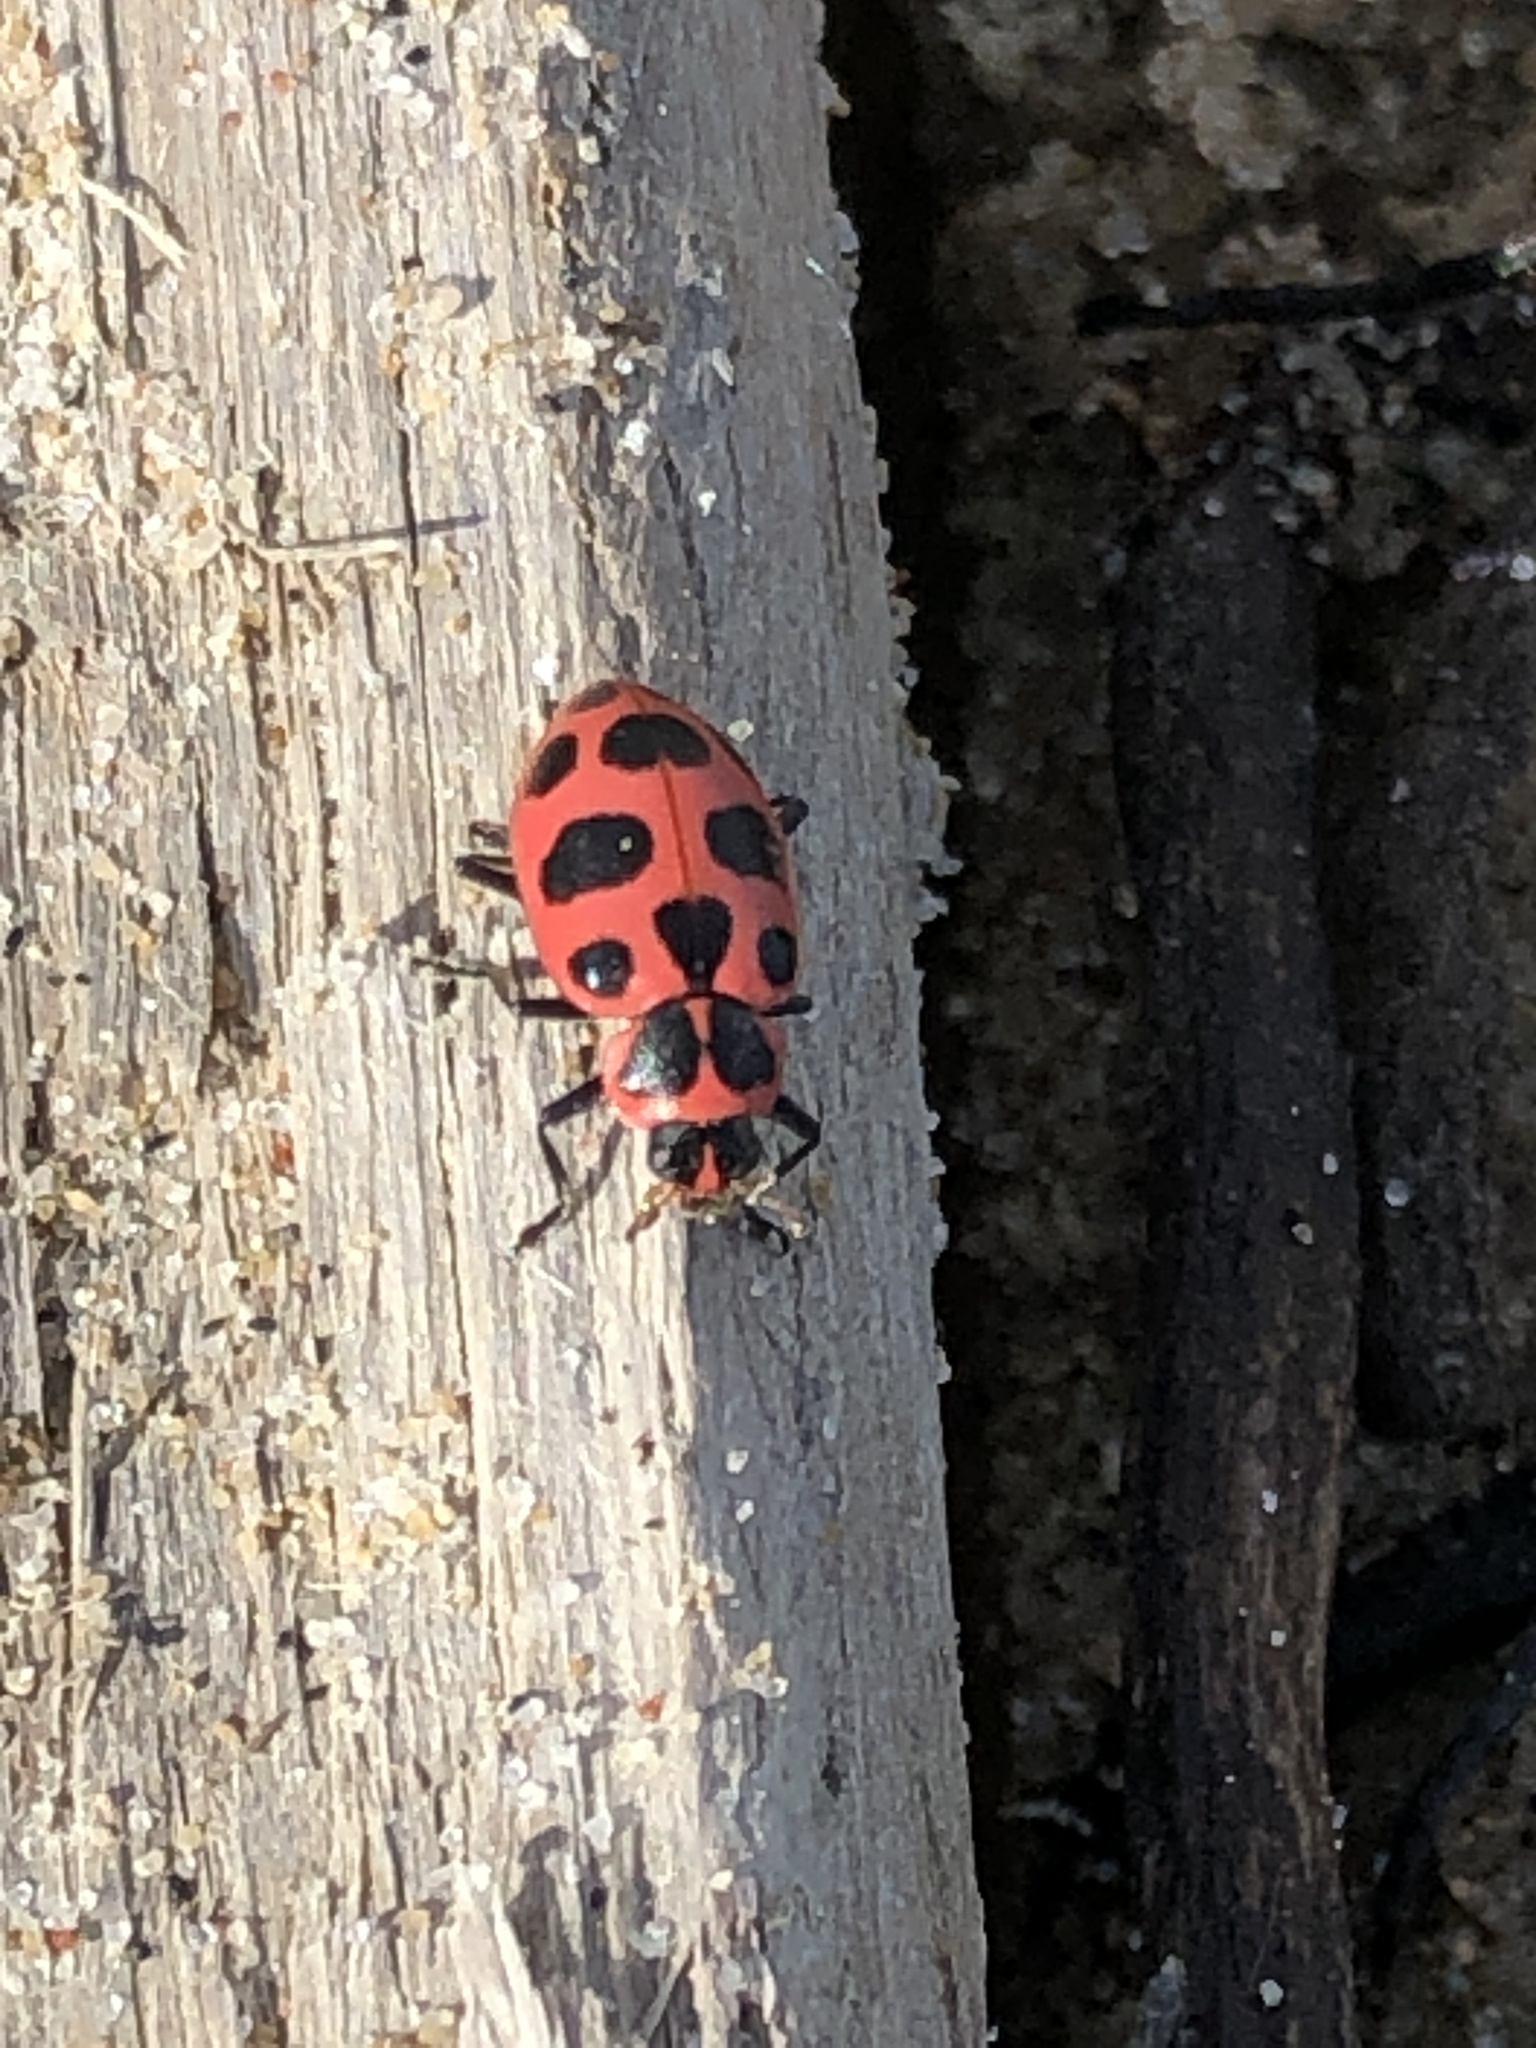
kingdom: Animalia
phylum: Arthropoda
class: Insecta
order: Coleoptera
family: Coccinellidae
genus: Coleomegilla
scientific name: Coleomegilla maculata
